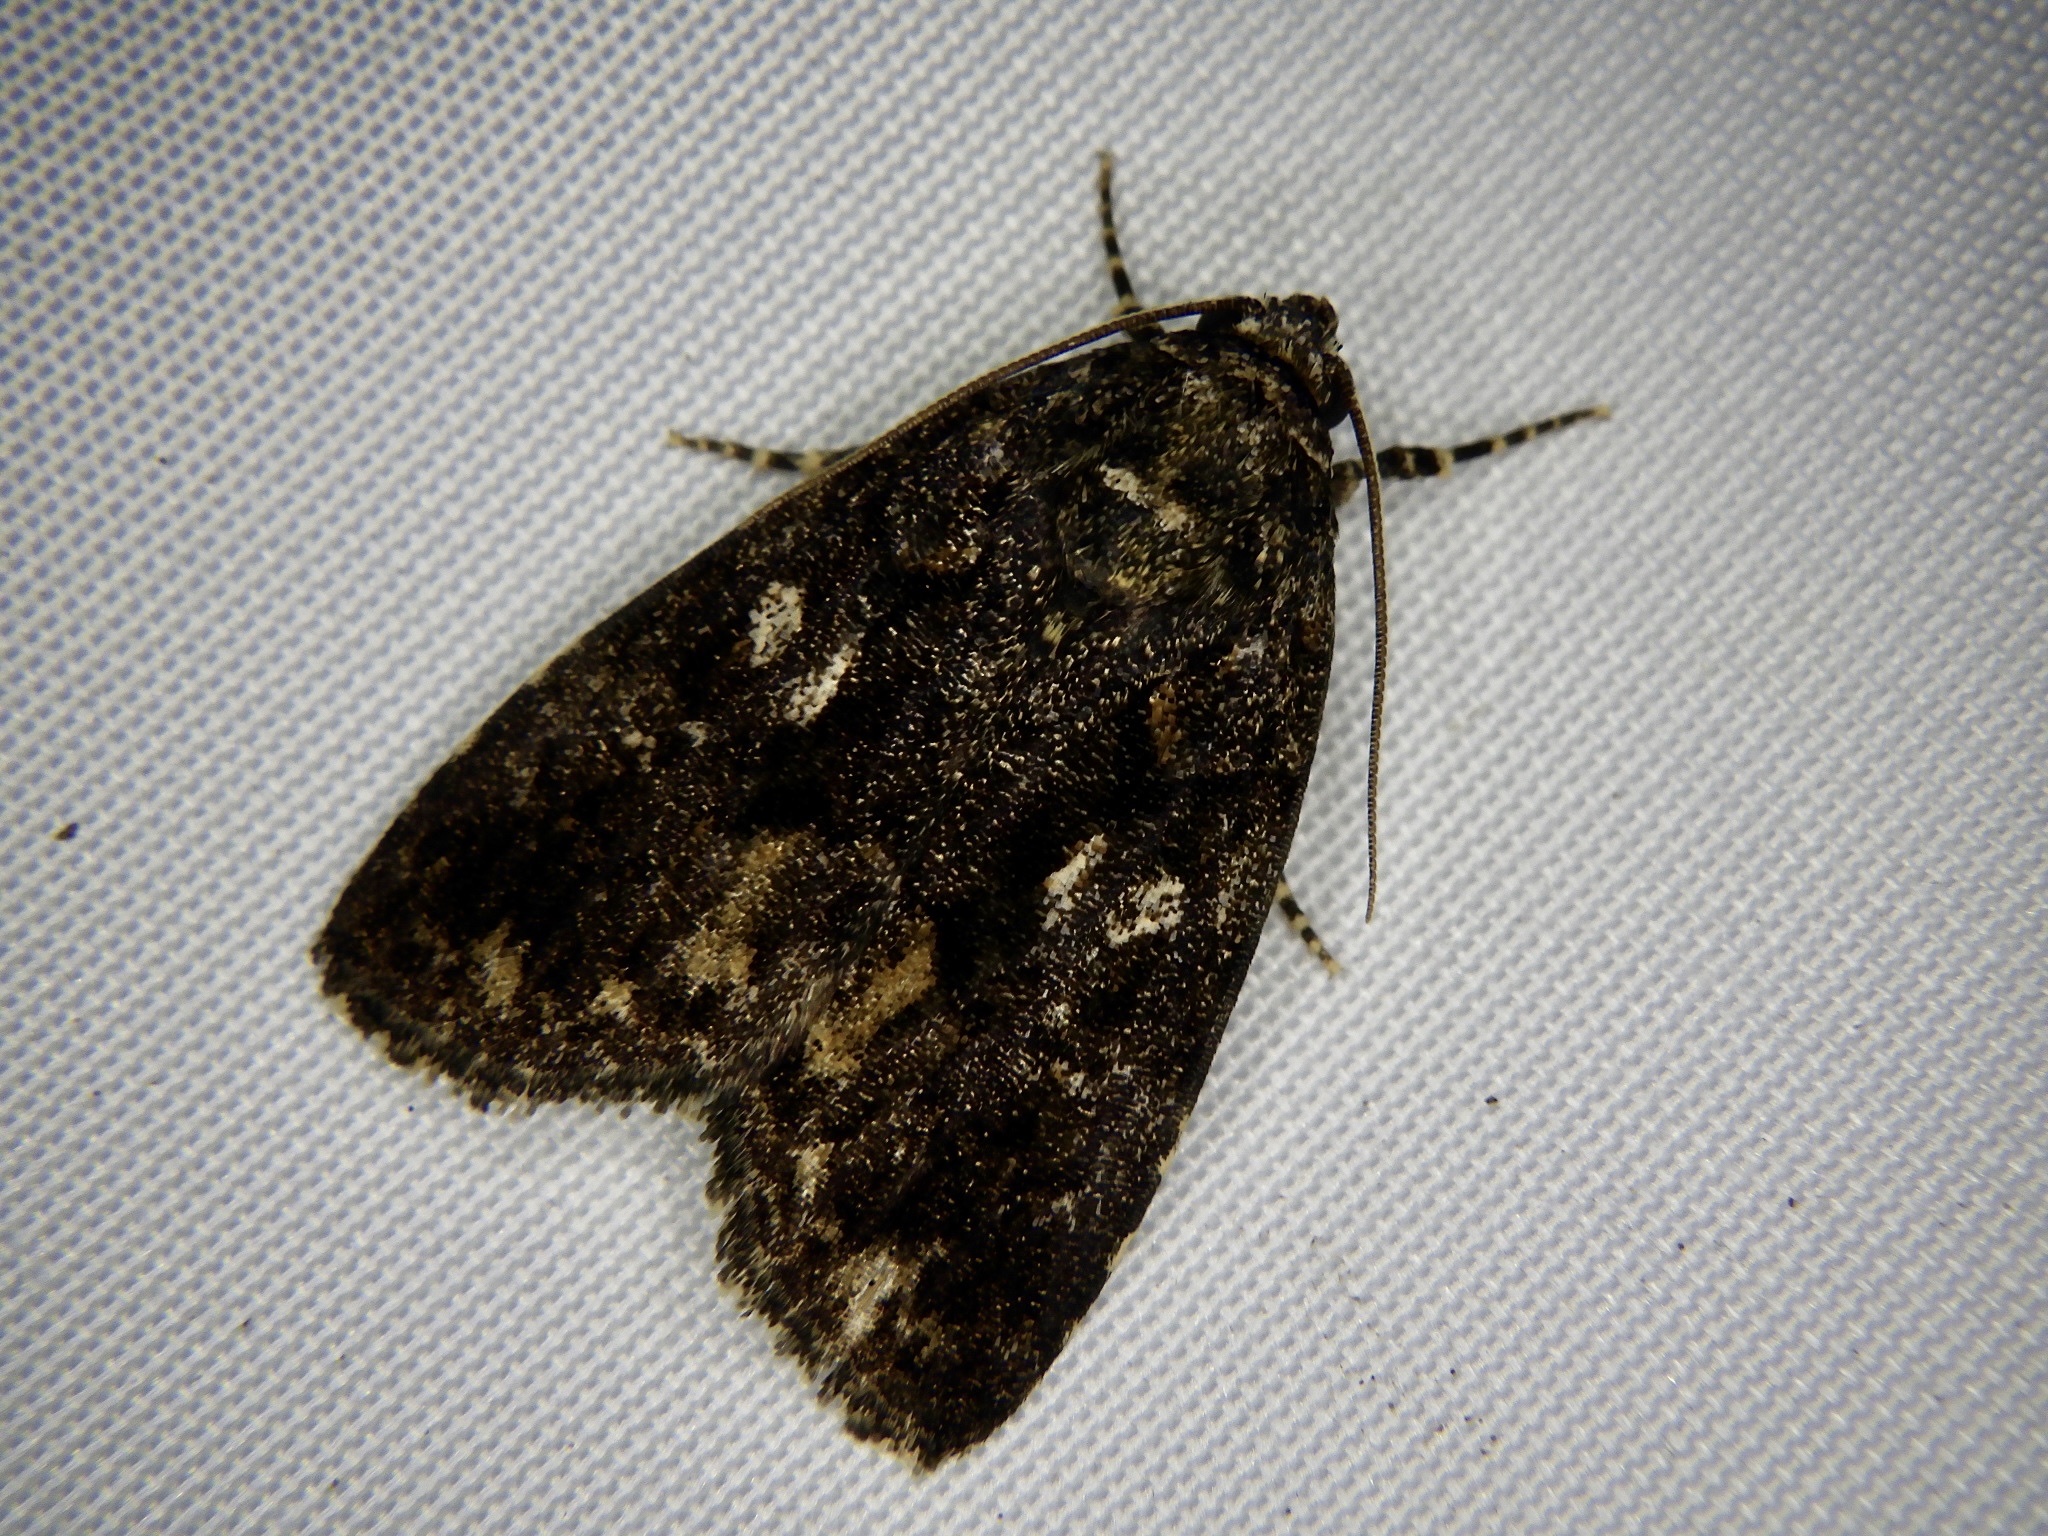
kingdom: Animalia
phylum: Arthropoda
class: Insecta
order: Lepidoptera
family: Noctuidae
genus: Gerbathodes
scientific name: Gerbathodes lichenodes
